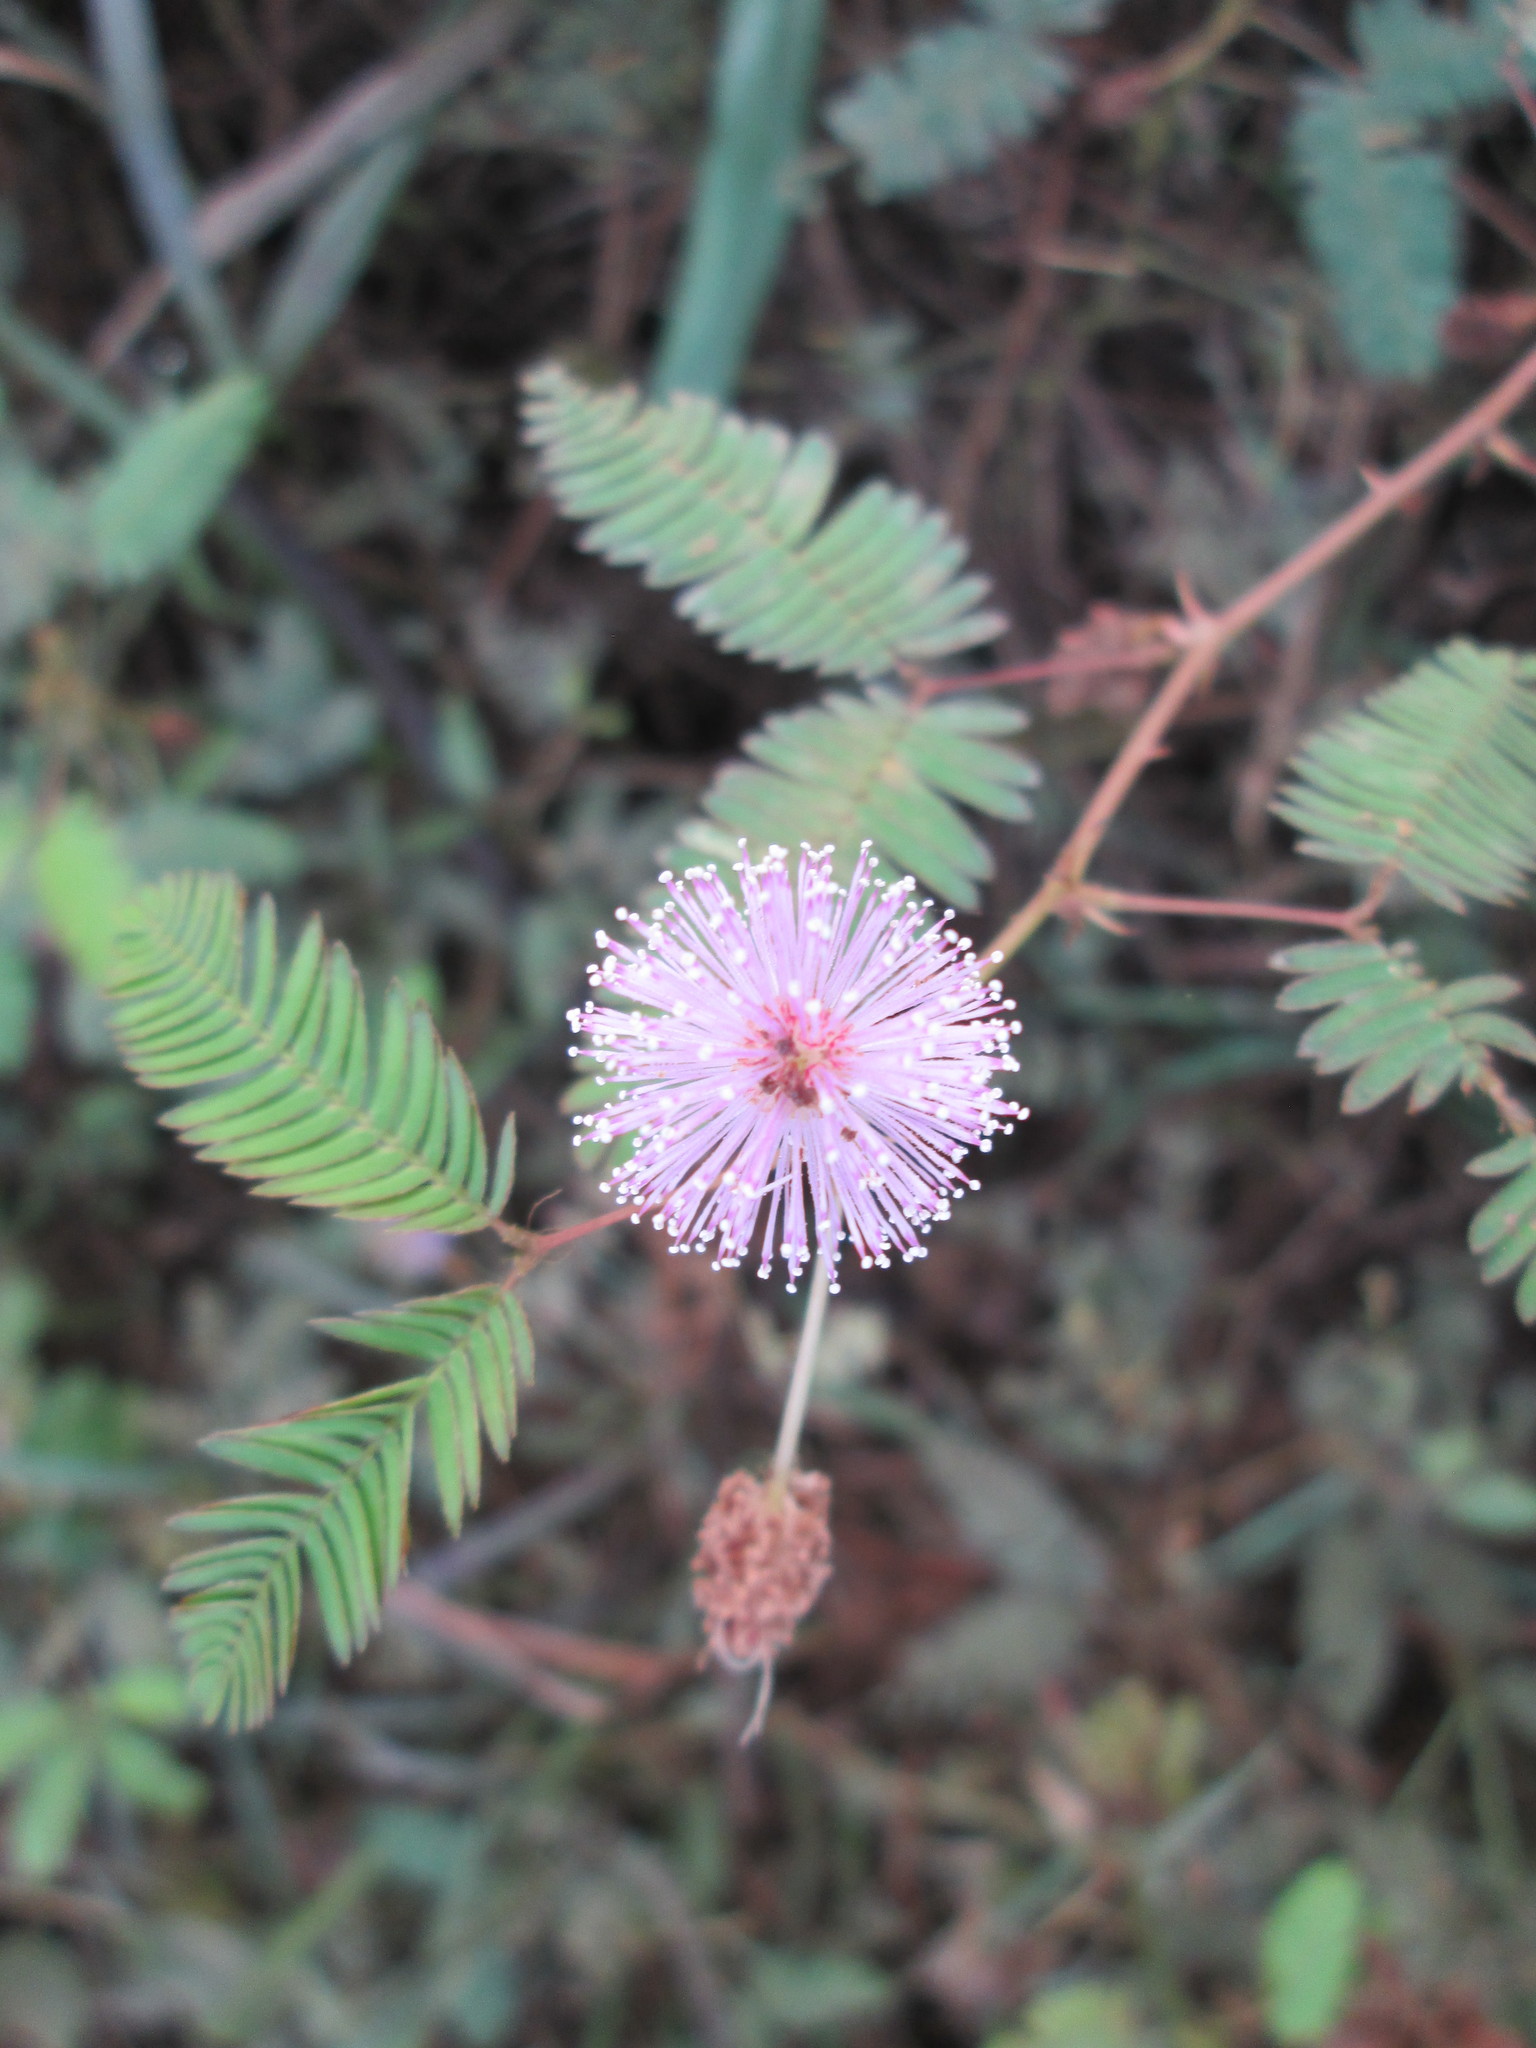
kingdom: Plantae
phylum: Tracheophyta
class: Magnoliopsida
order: Fabales
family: Fabaceae
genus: Mimosa
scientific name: Mimosa pudica
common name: Sensitive plant
